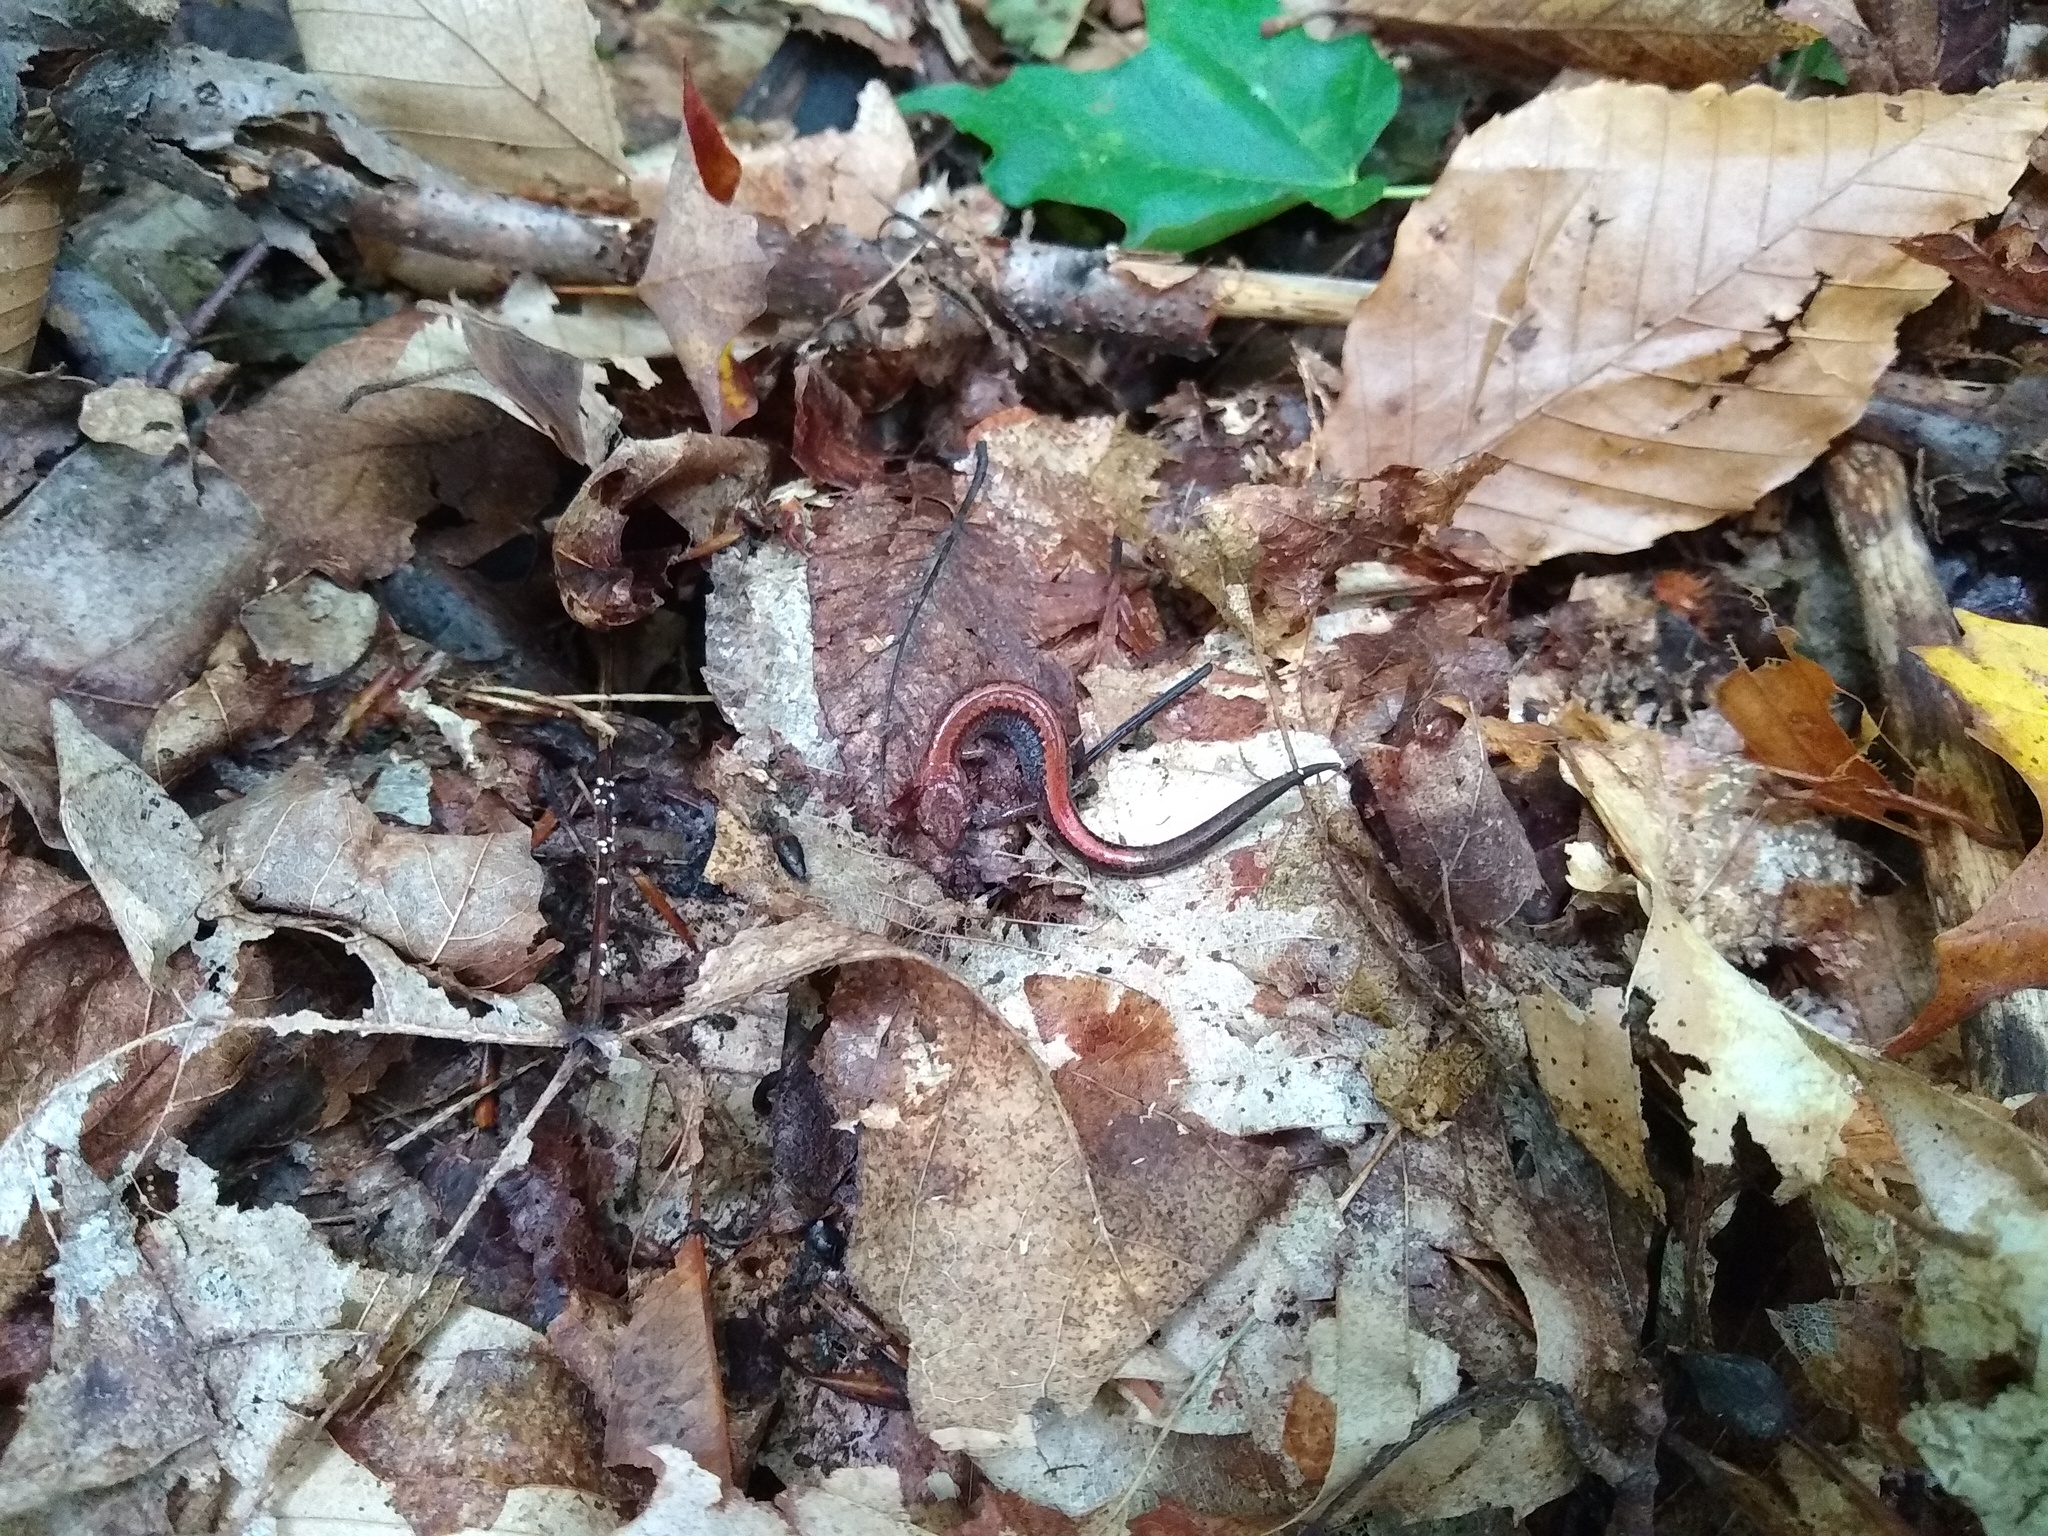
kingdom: Animalia
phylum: Chordata
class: Amphibia
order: Caudata
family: Plethodontidae
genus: Plethodon
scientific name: Plethodon cinereus
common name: Redback salamander
